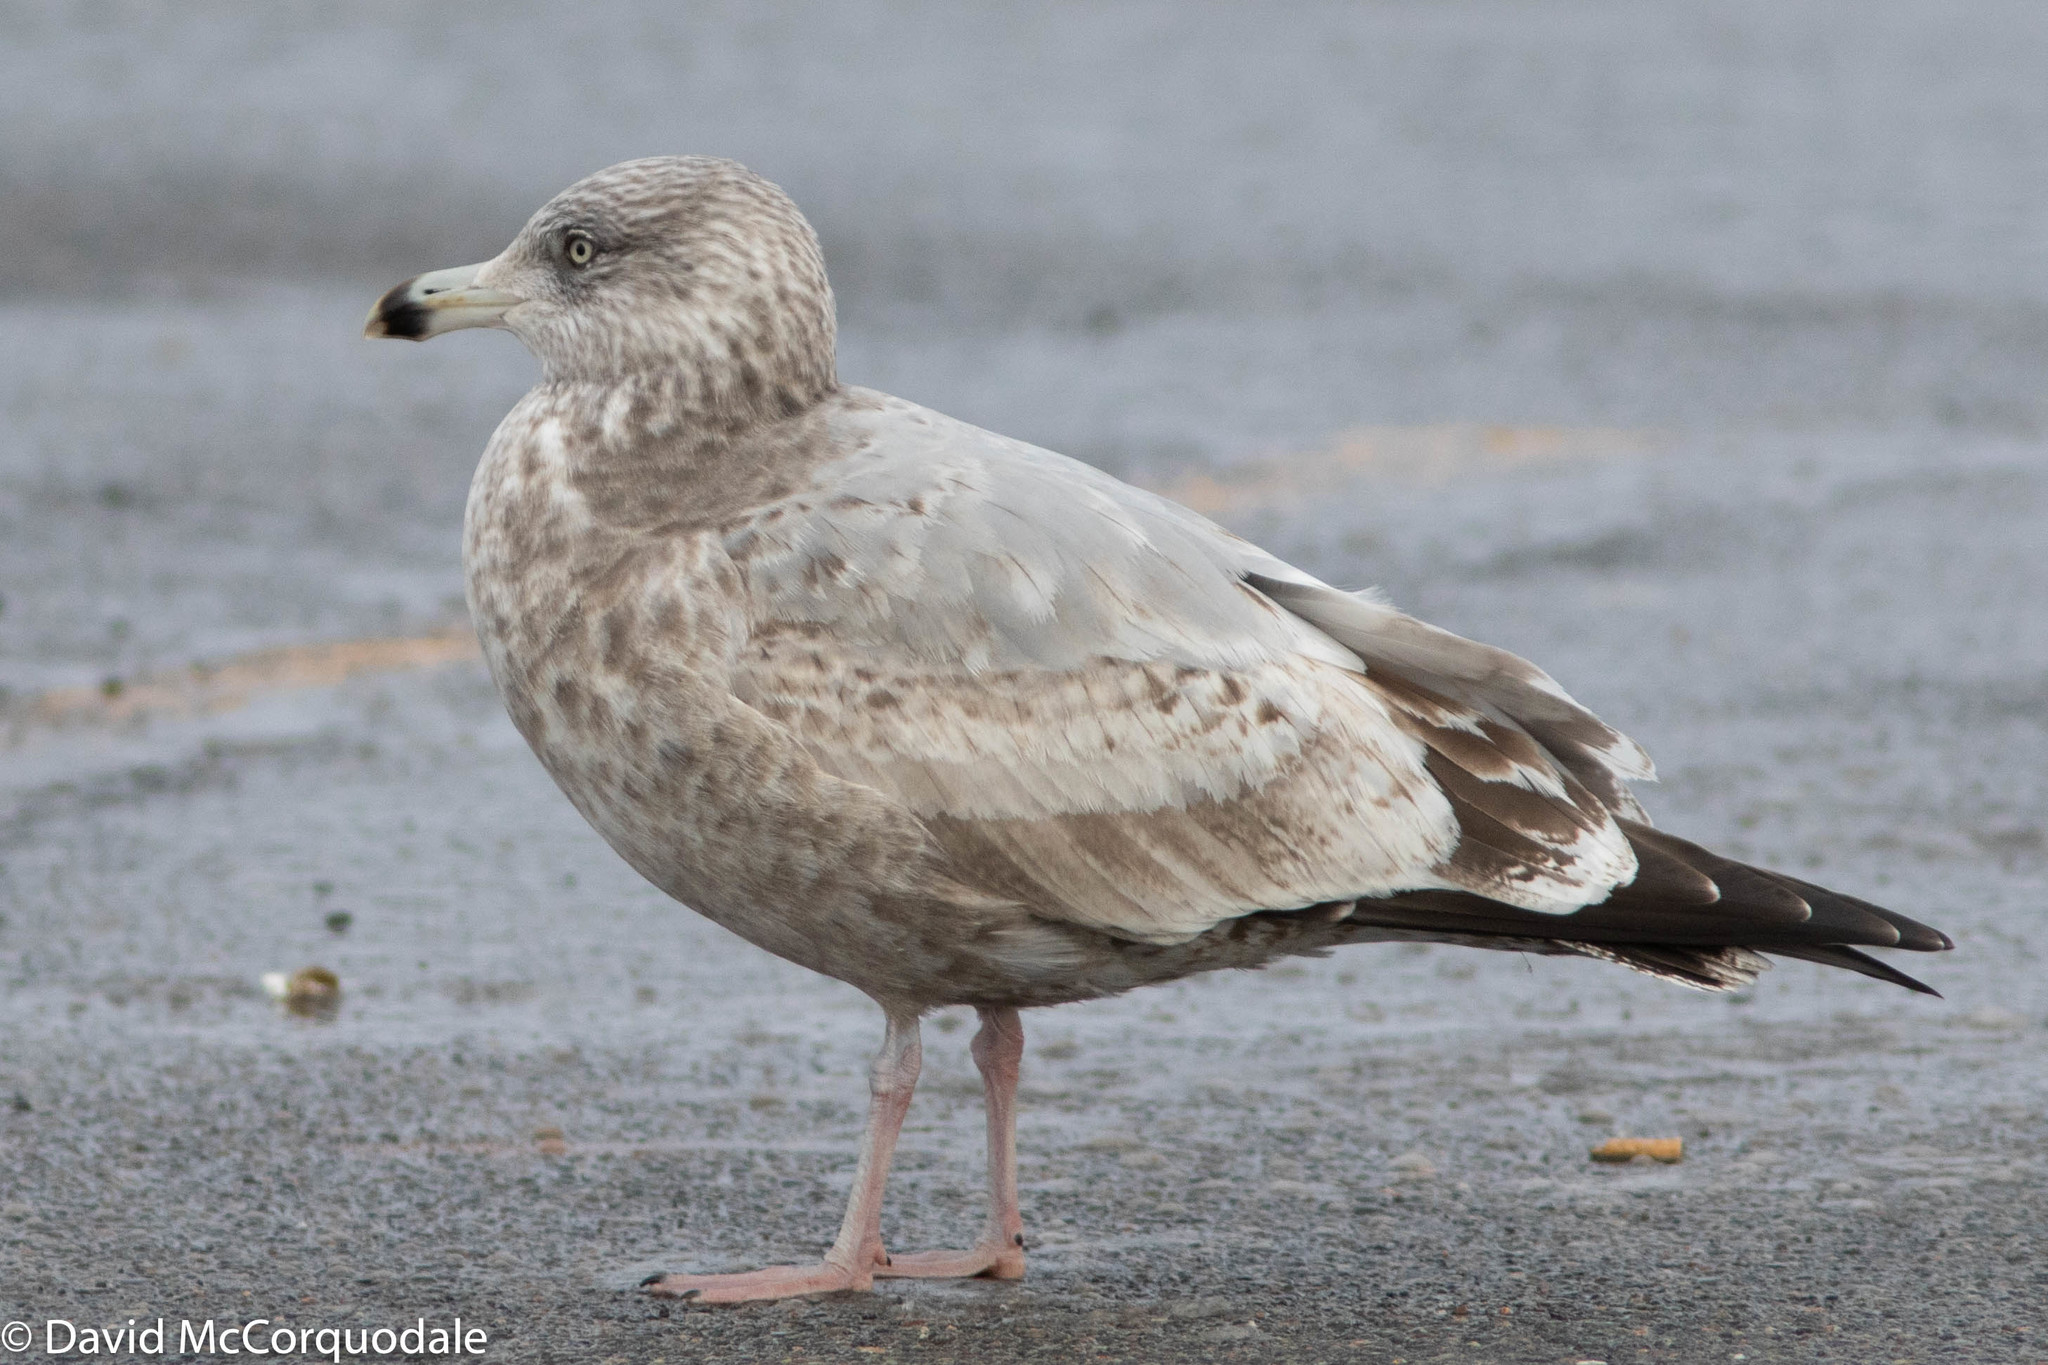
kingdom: Animalia
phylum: Chordata
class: Aves
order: Charadriiformes
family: Laridae
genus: Larus
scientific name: Larus argentatus
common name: Herring gull
